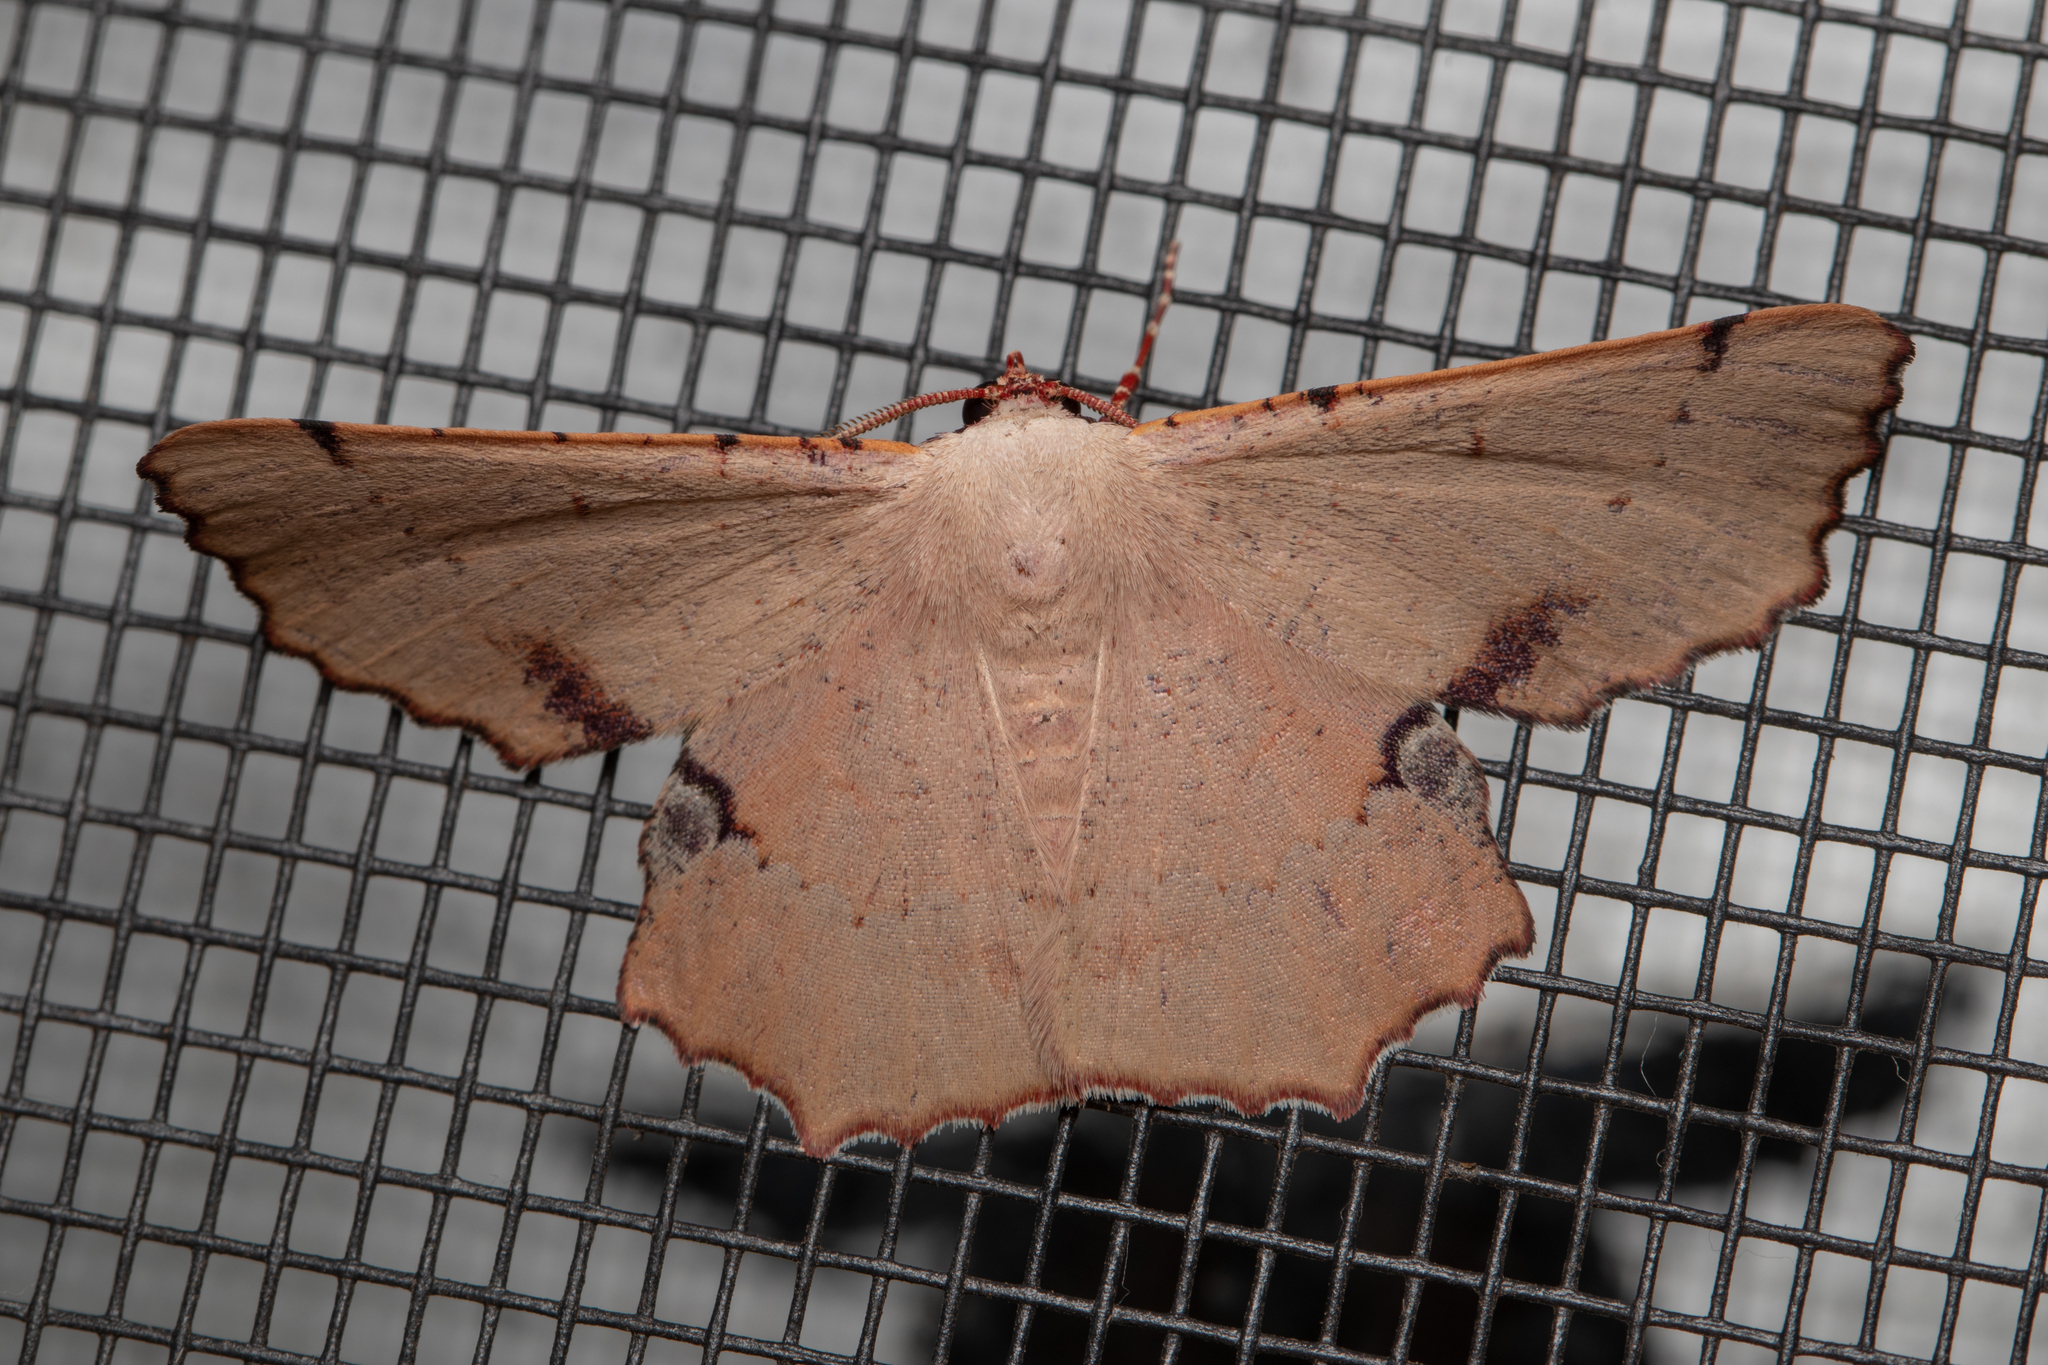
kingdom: Animalia
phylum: Arthropoda
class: Insecta
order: Lepidoptera
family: Geometridae
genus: Cernia
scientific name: Cernia amyclaria
